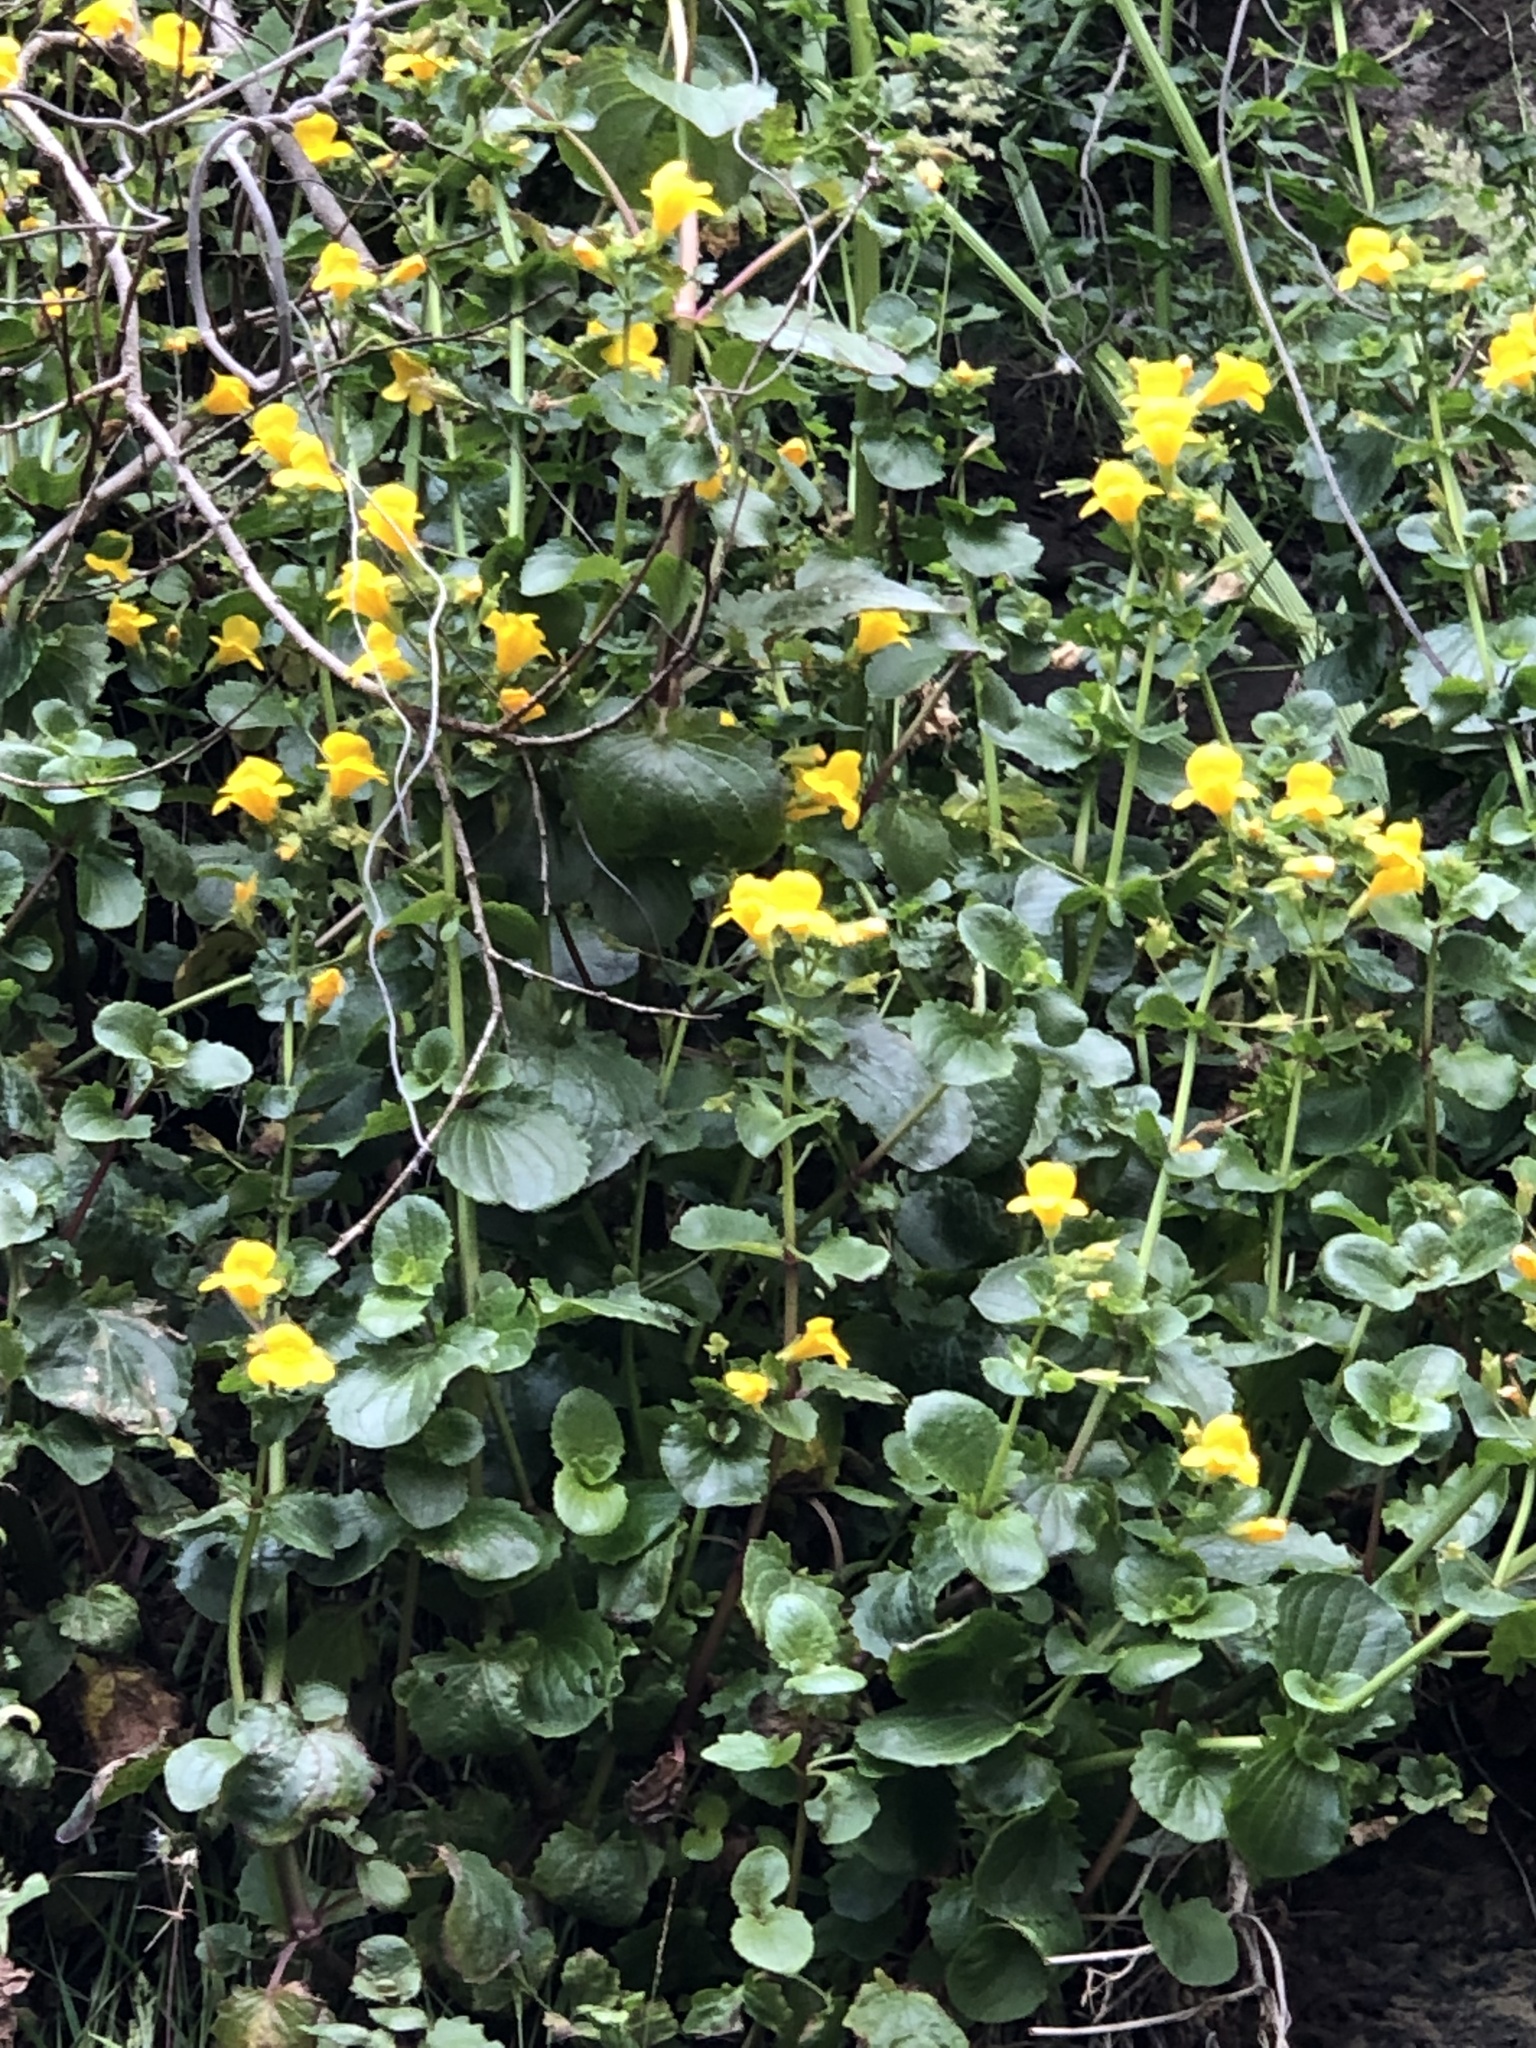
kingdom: Plantae
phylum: Tracheophyta
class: Magnoliopsida
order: Lamiales
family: Phrymaceae
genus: Erythranthe
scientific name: Erythranthe grandis
